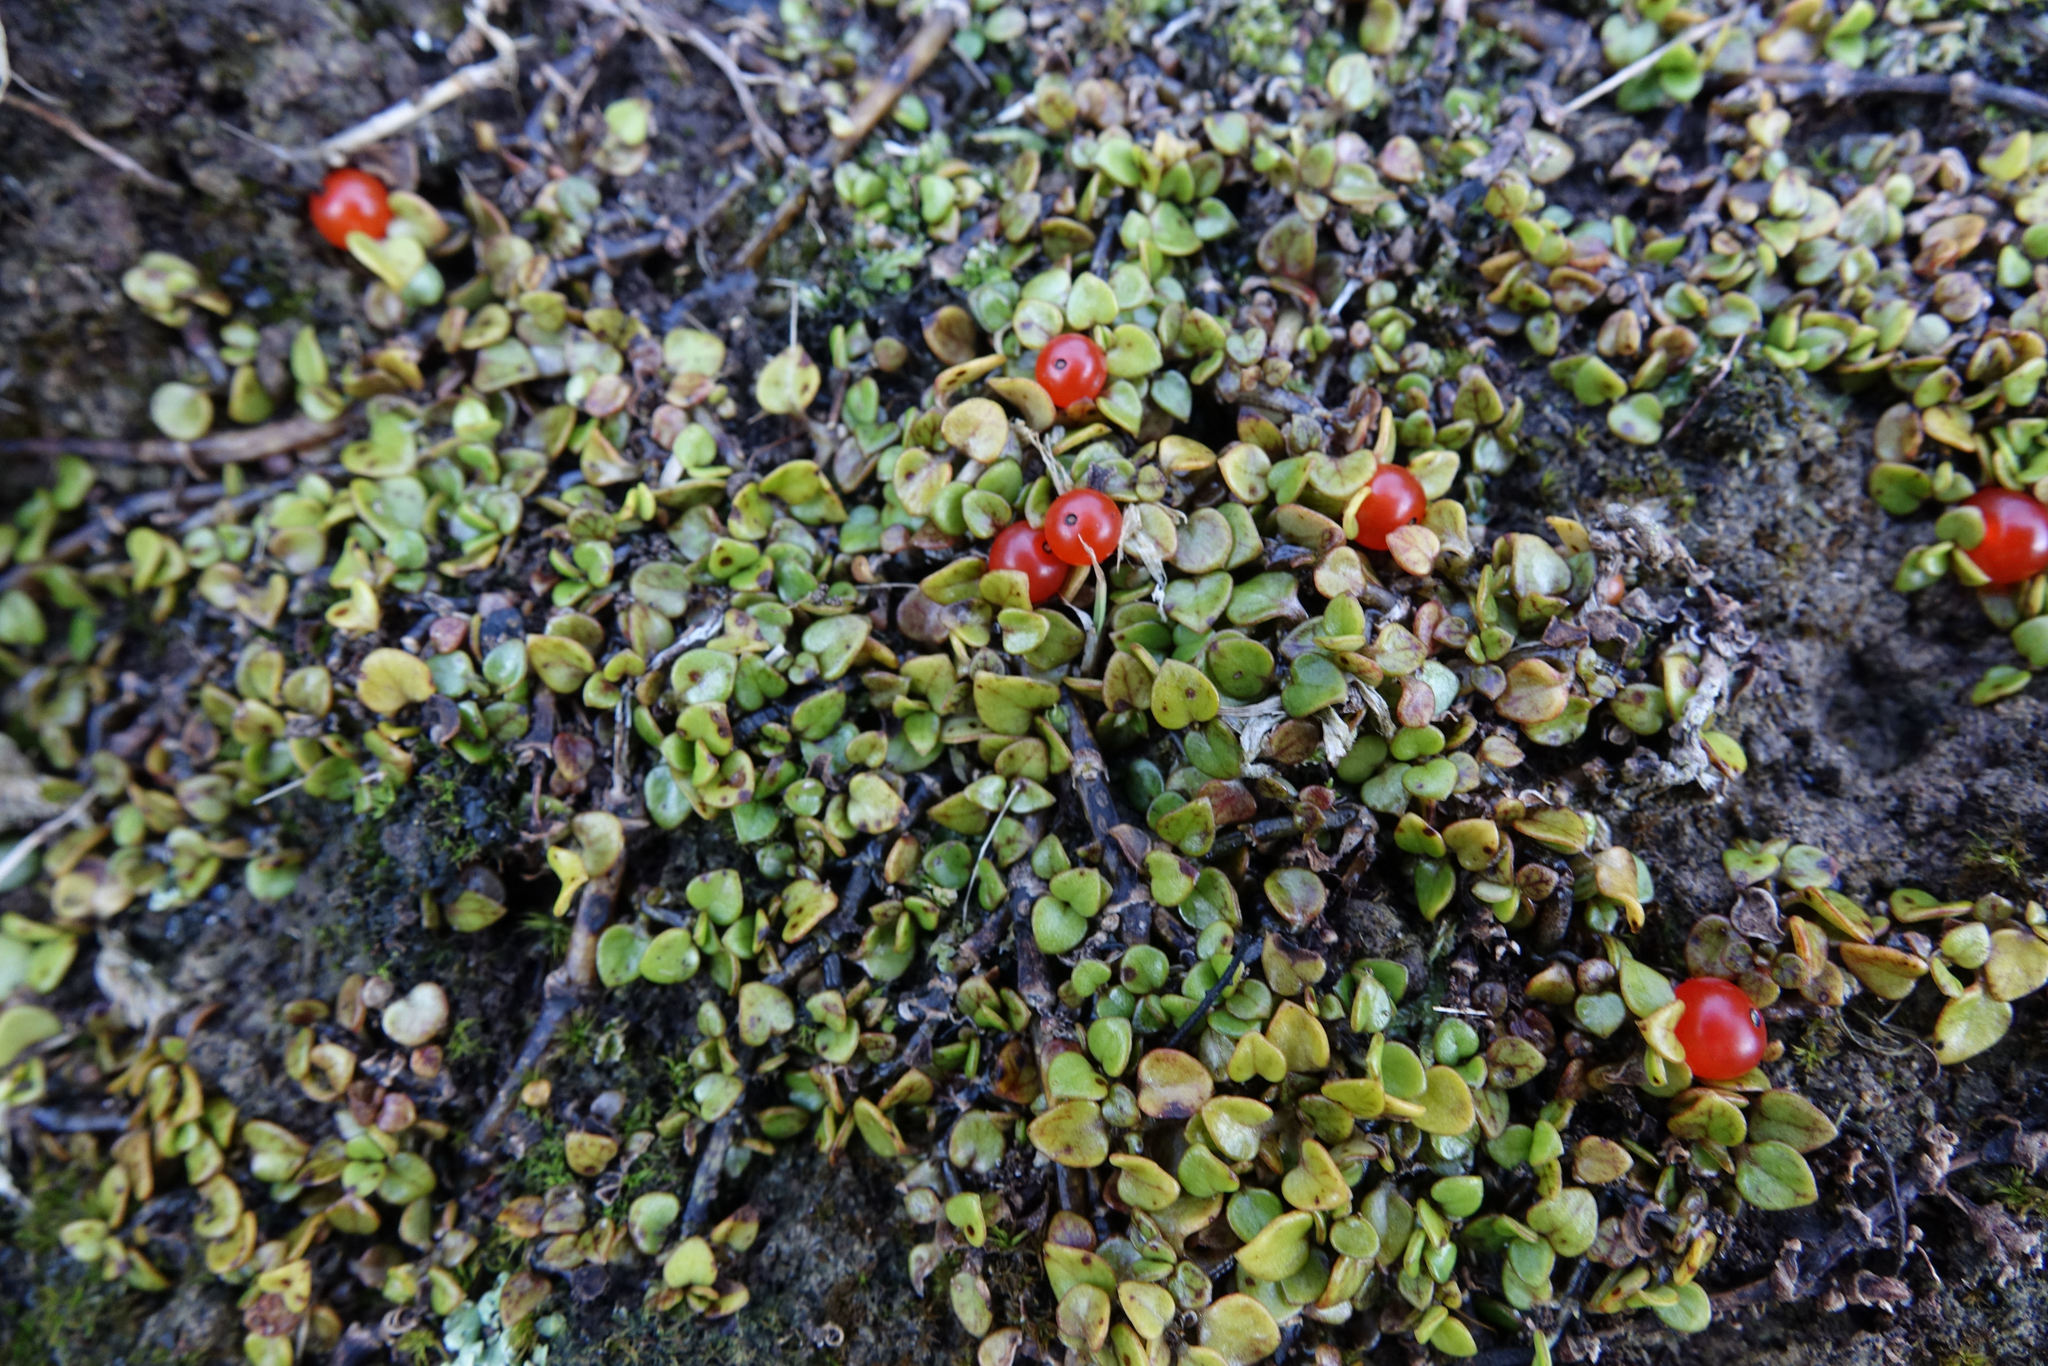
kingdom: Plantae
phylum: Tracheophyta
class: Magnoliopsida
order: Gentianales
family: Rubiaceae
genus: Nertera
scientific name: Nertera granadensis
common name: Beadplant
